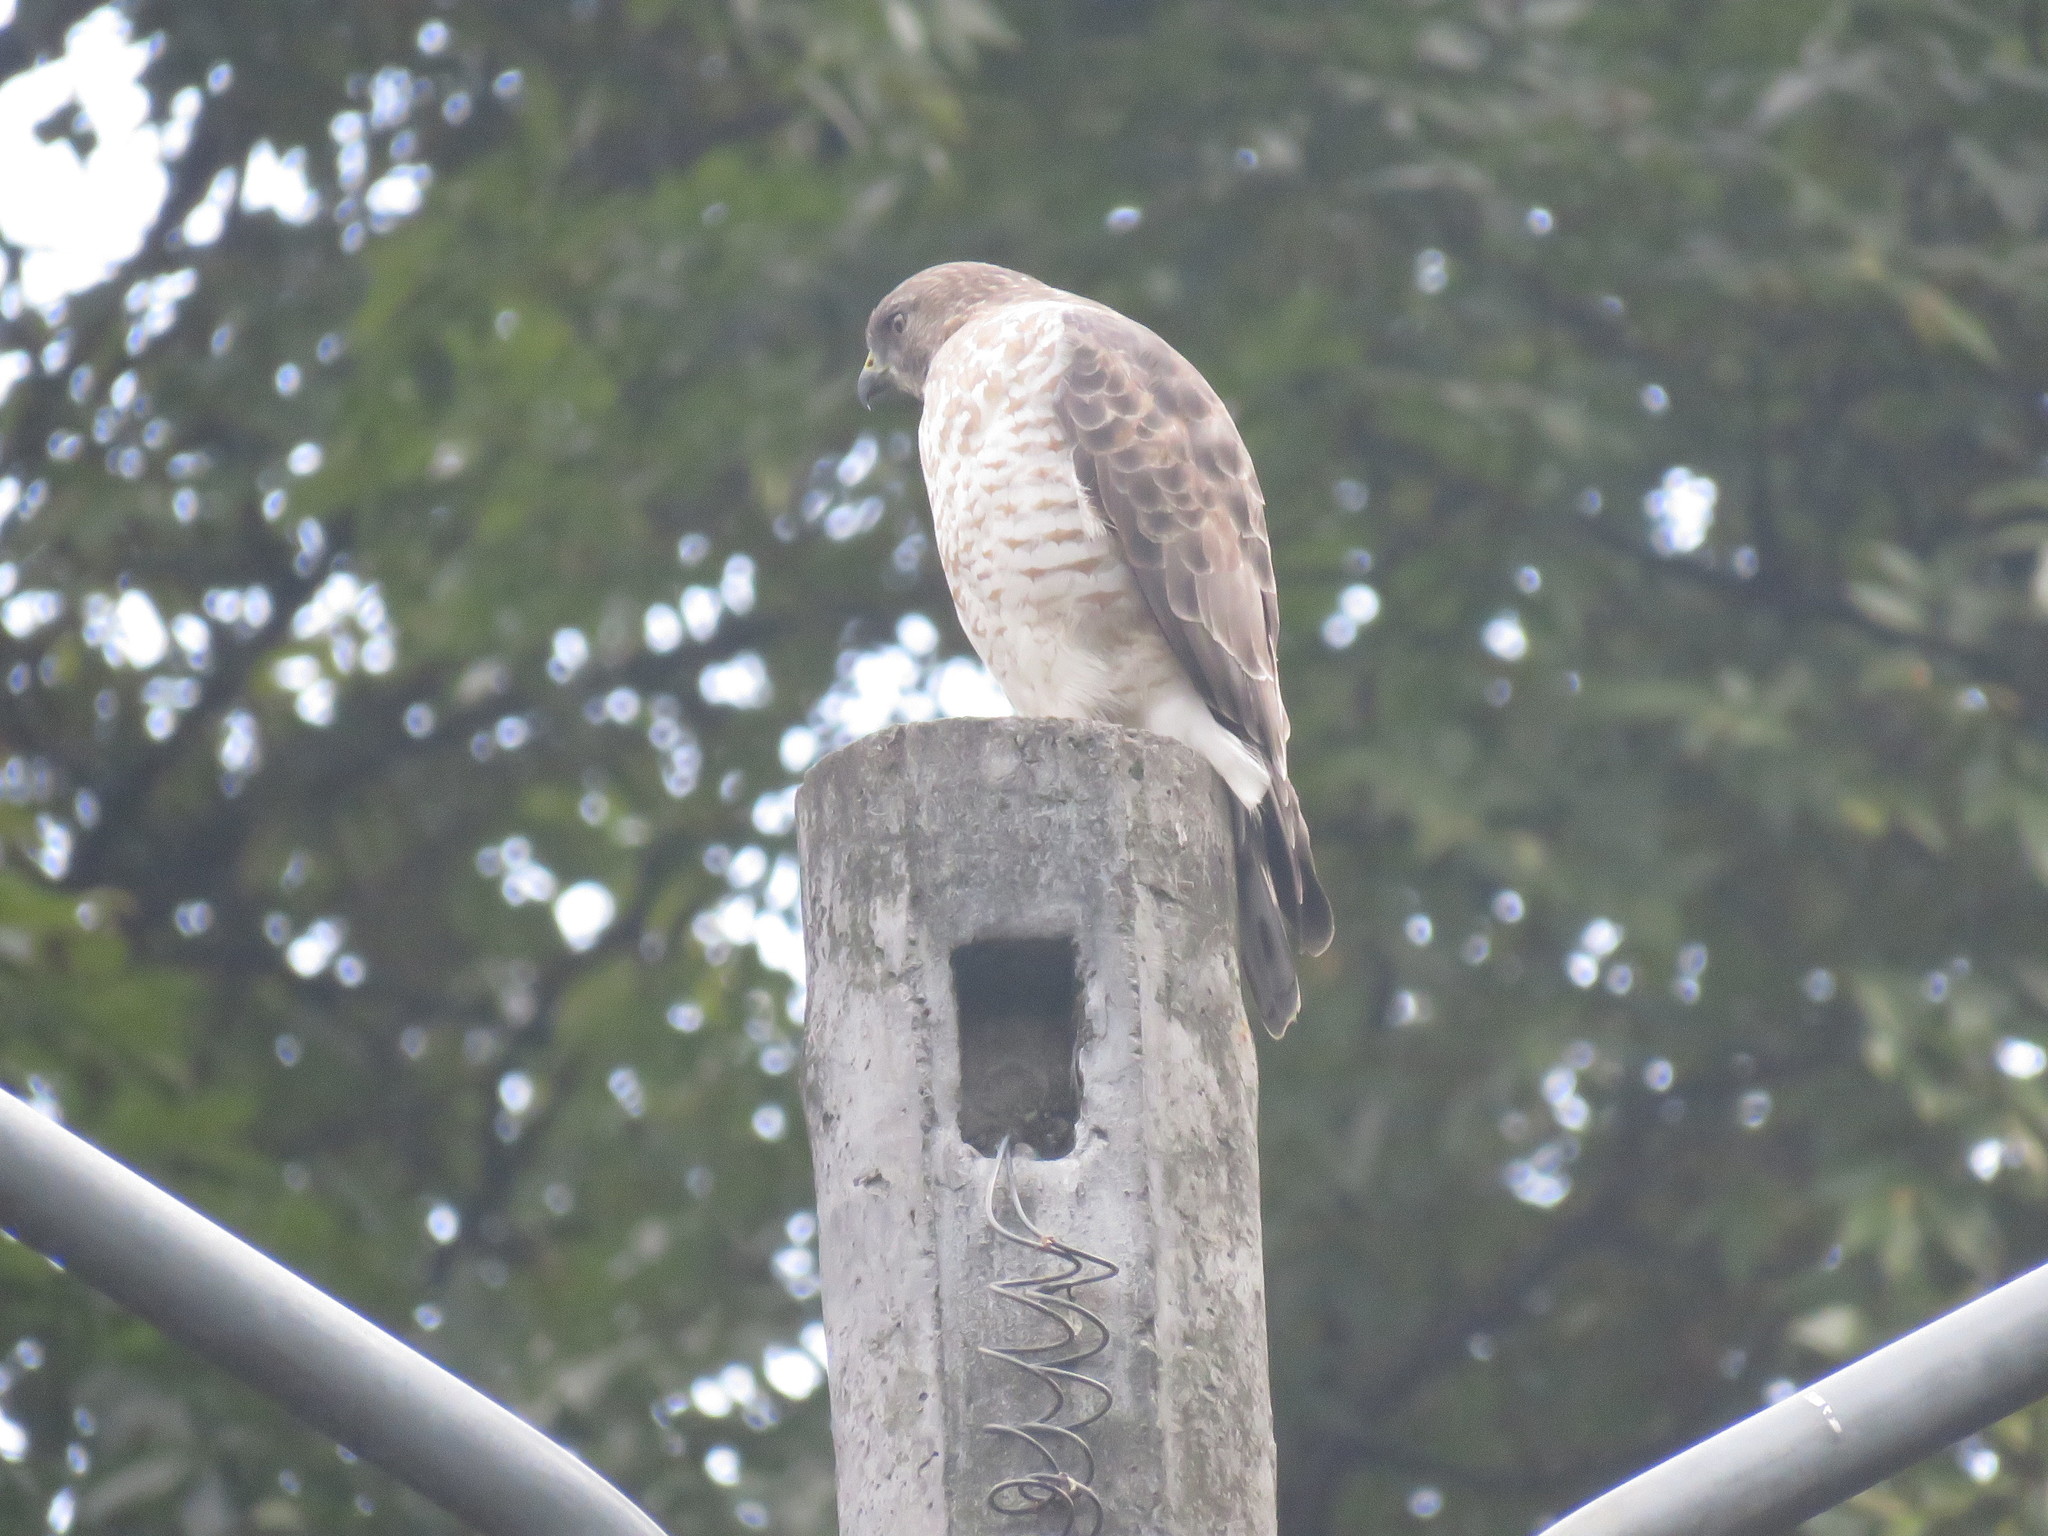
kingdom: Animalia
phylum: Chordata
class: Aves
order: Accipitriformes
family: Accipitridae
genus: Buteo
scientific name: Buteo platypterus
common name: Broad-winged hawk
